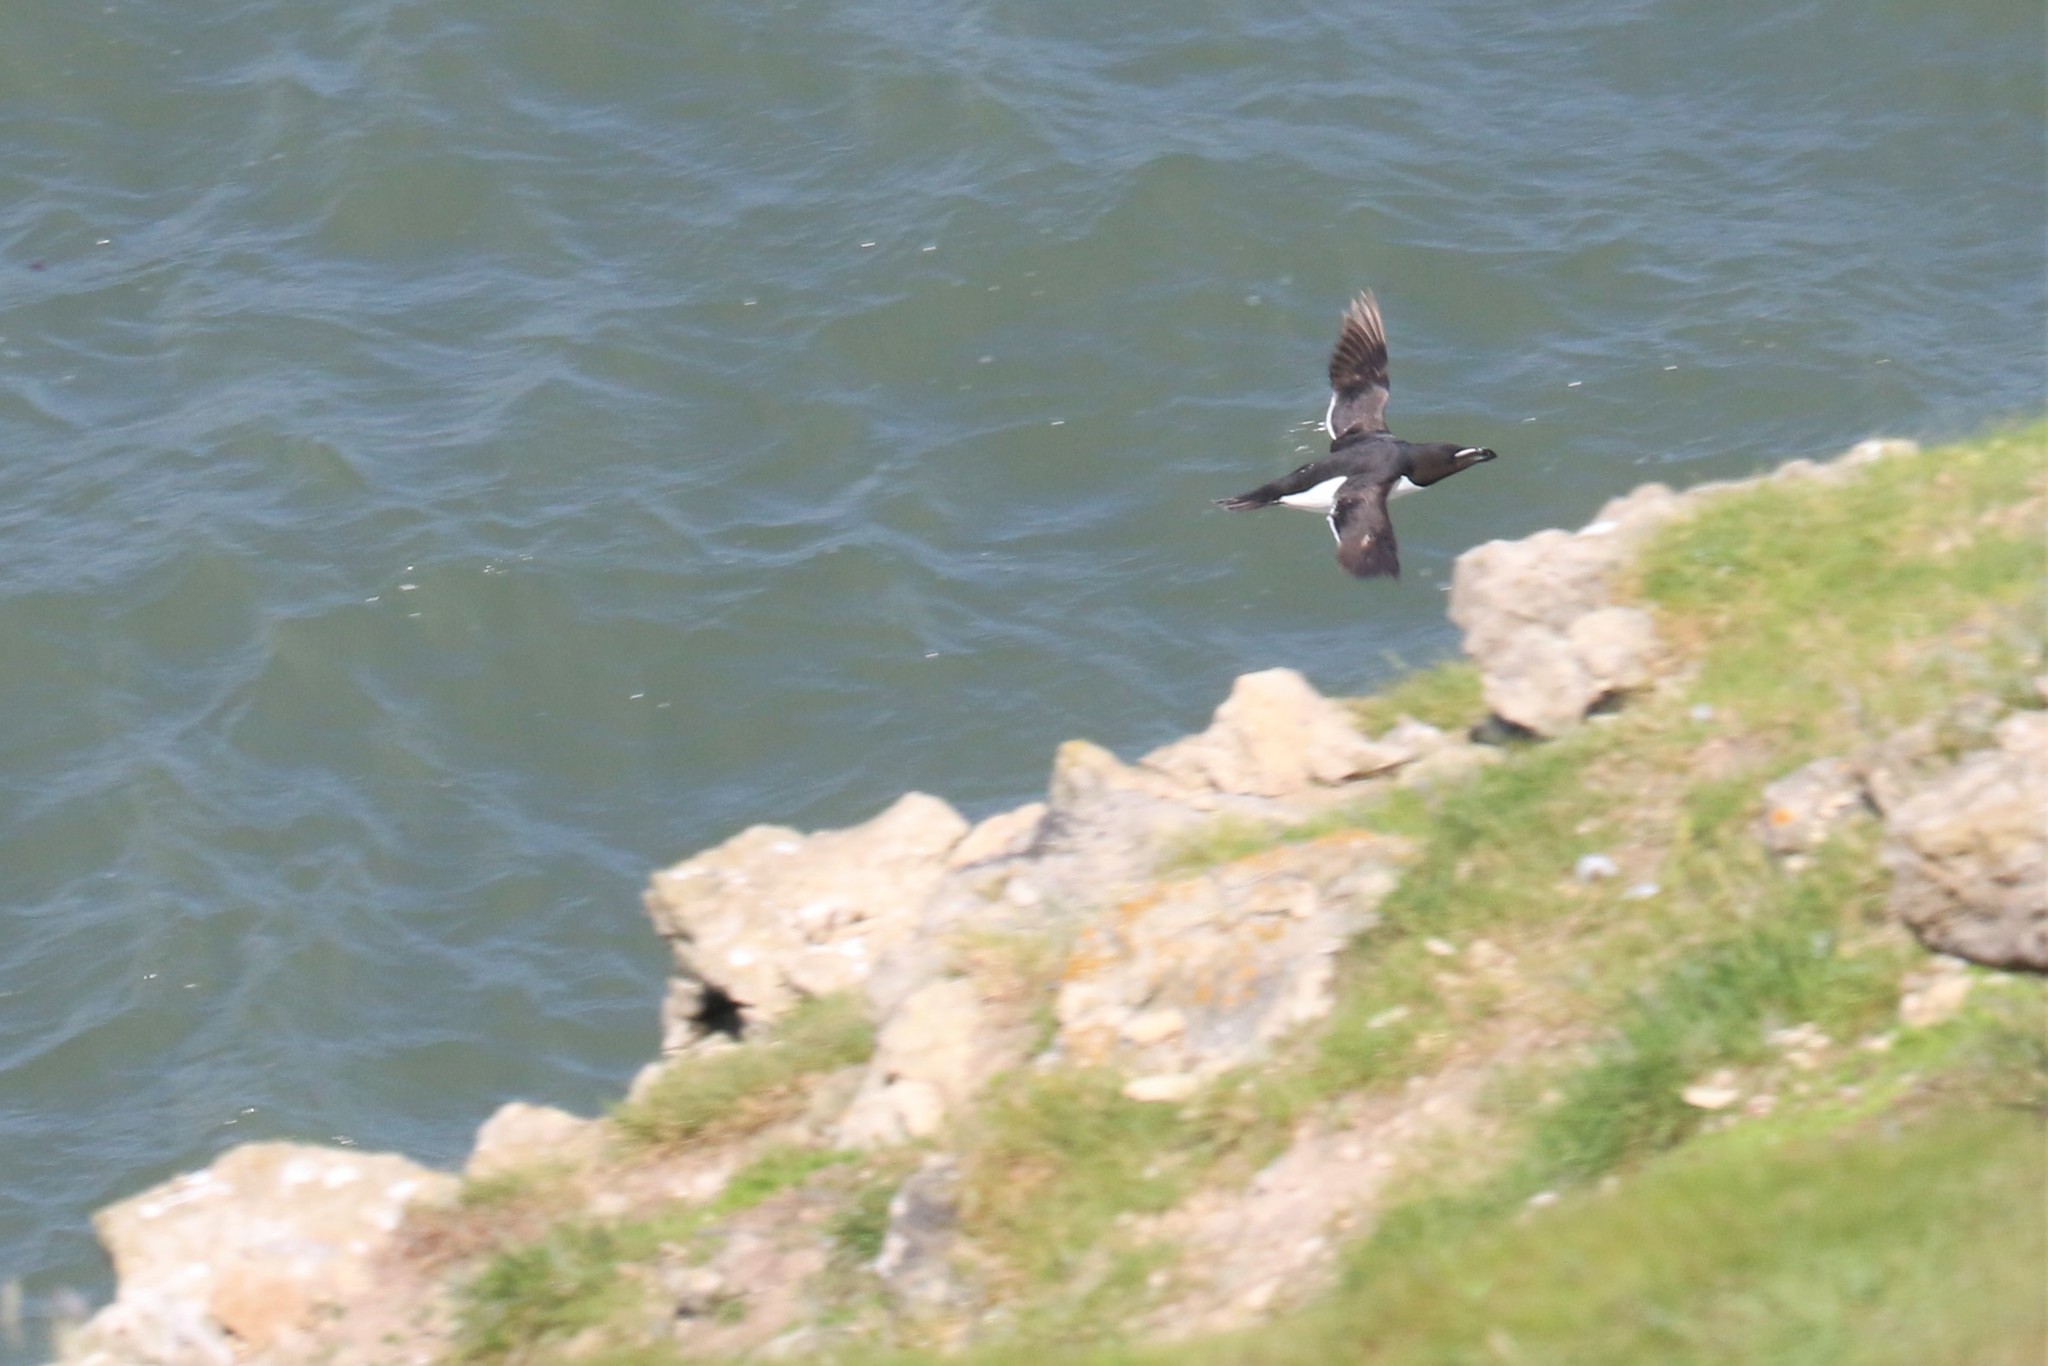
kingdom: Animalia
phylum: Chordata
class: Aves
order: Charadriiformes
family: Alcidae
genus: Alca
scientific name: Alca torda
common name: Razorbill
